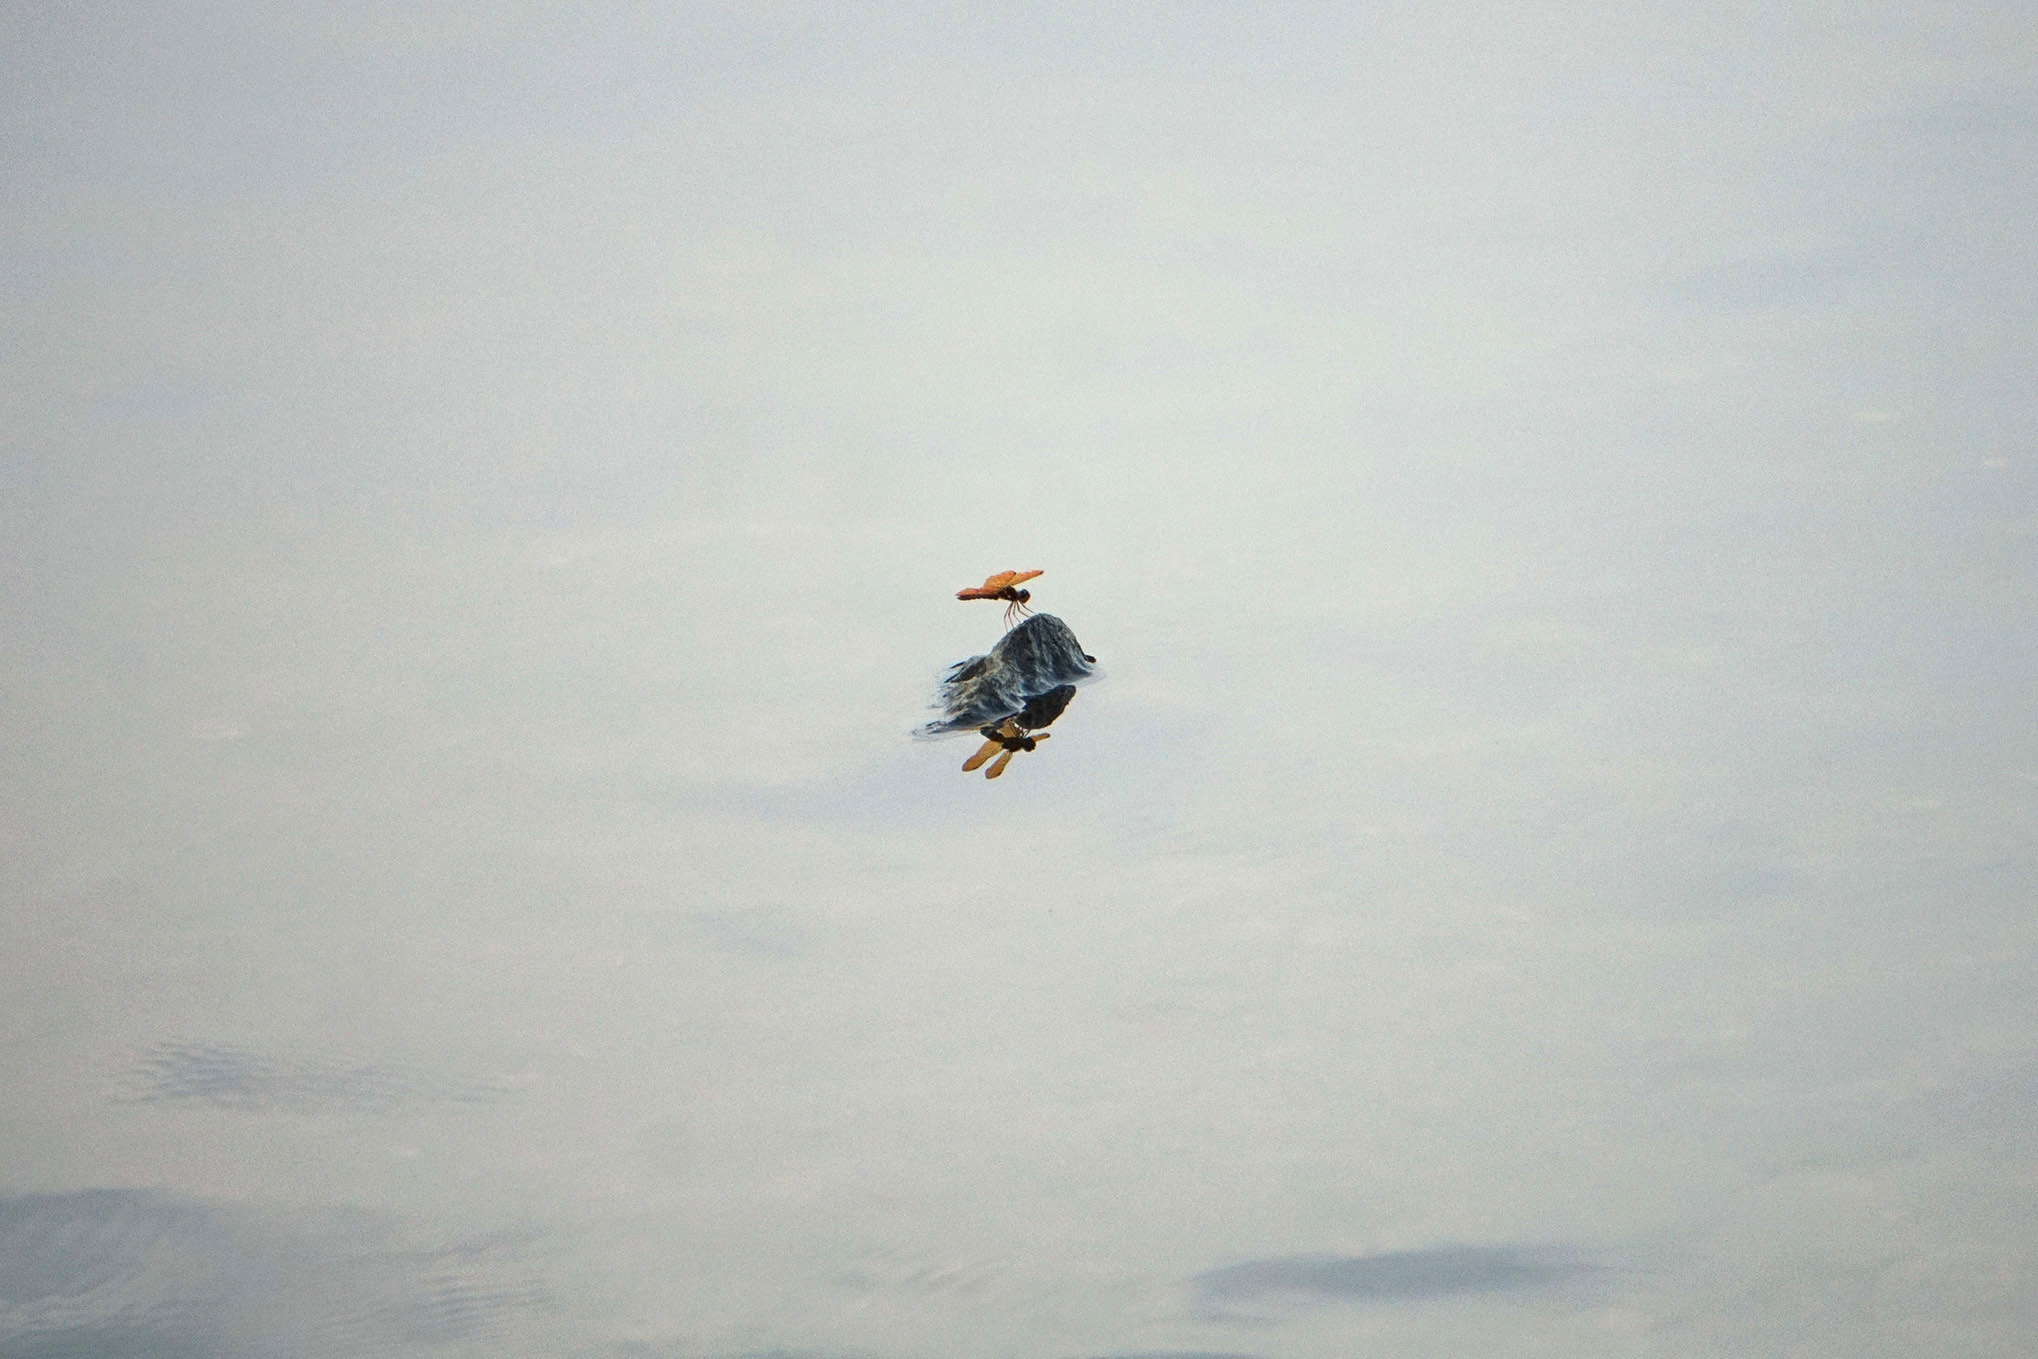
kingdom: Animalia
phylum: Arthropoda
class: Insecta
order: Odonata
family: Libellulidae
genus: Perithemis
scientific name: Perithemis tenera
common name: Eastern amberwing
